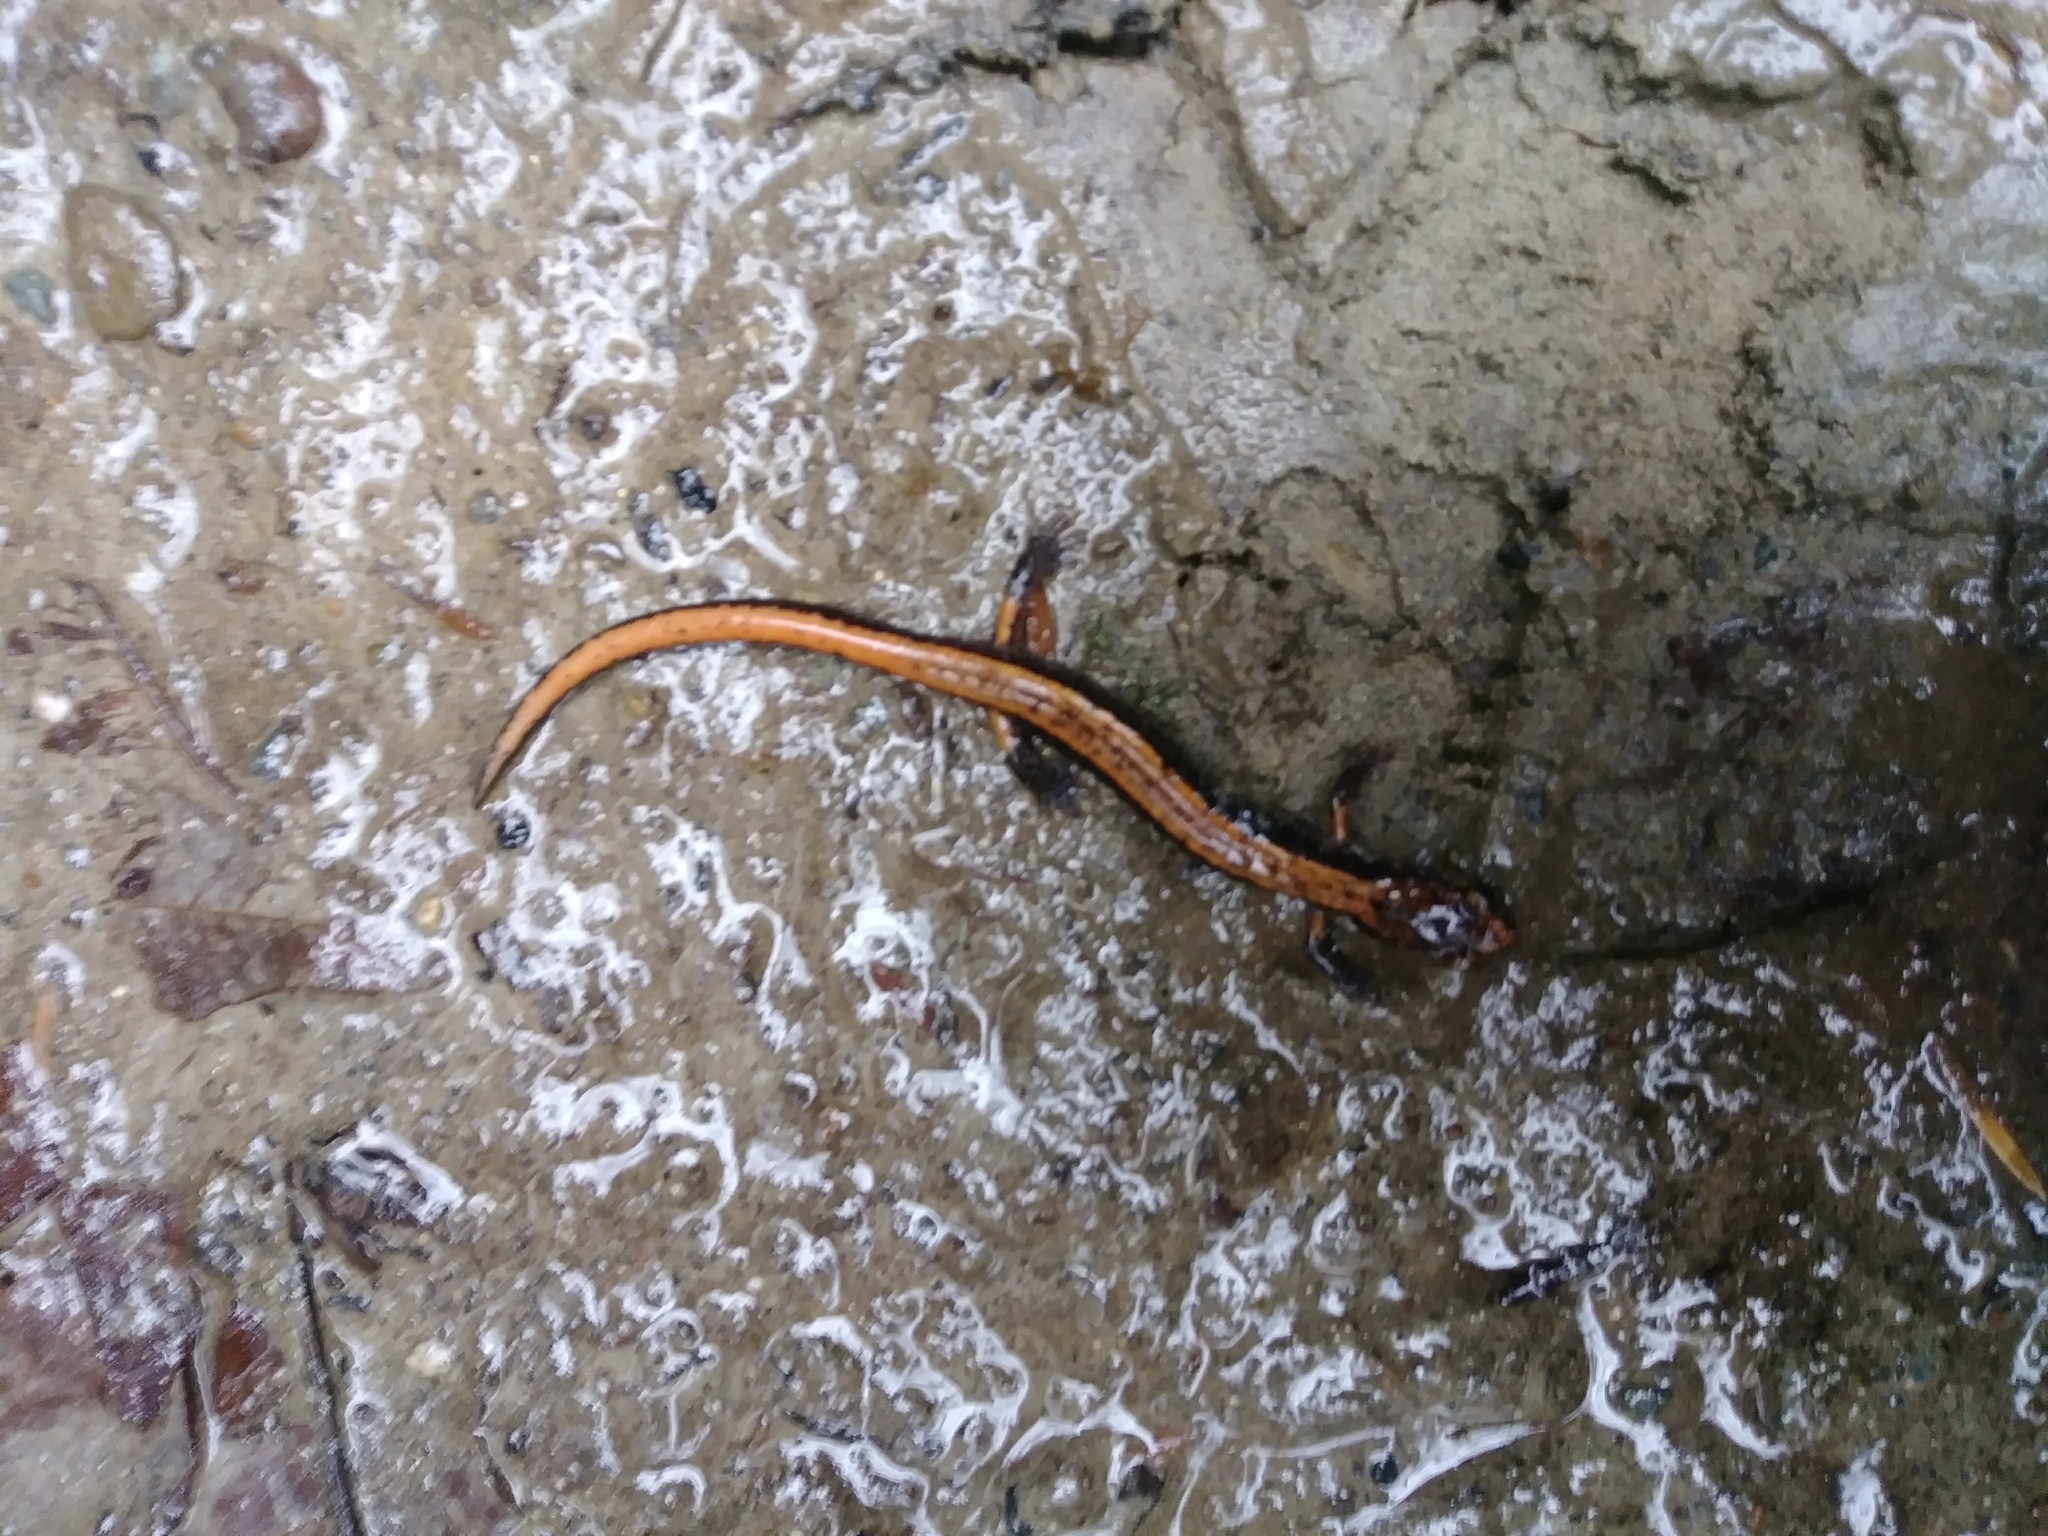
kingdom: Animalia
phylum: Chordata
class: Amphibia
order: Caudata
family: Plethodontidae
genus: Plethodon
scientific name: Plethodon vehiculum
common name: Western red-backed salamander
